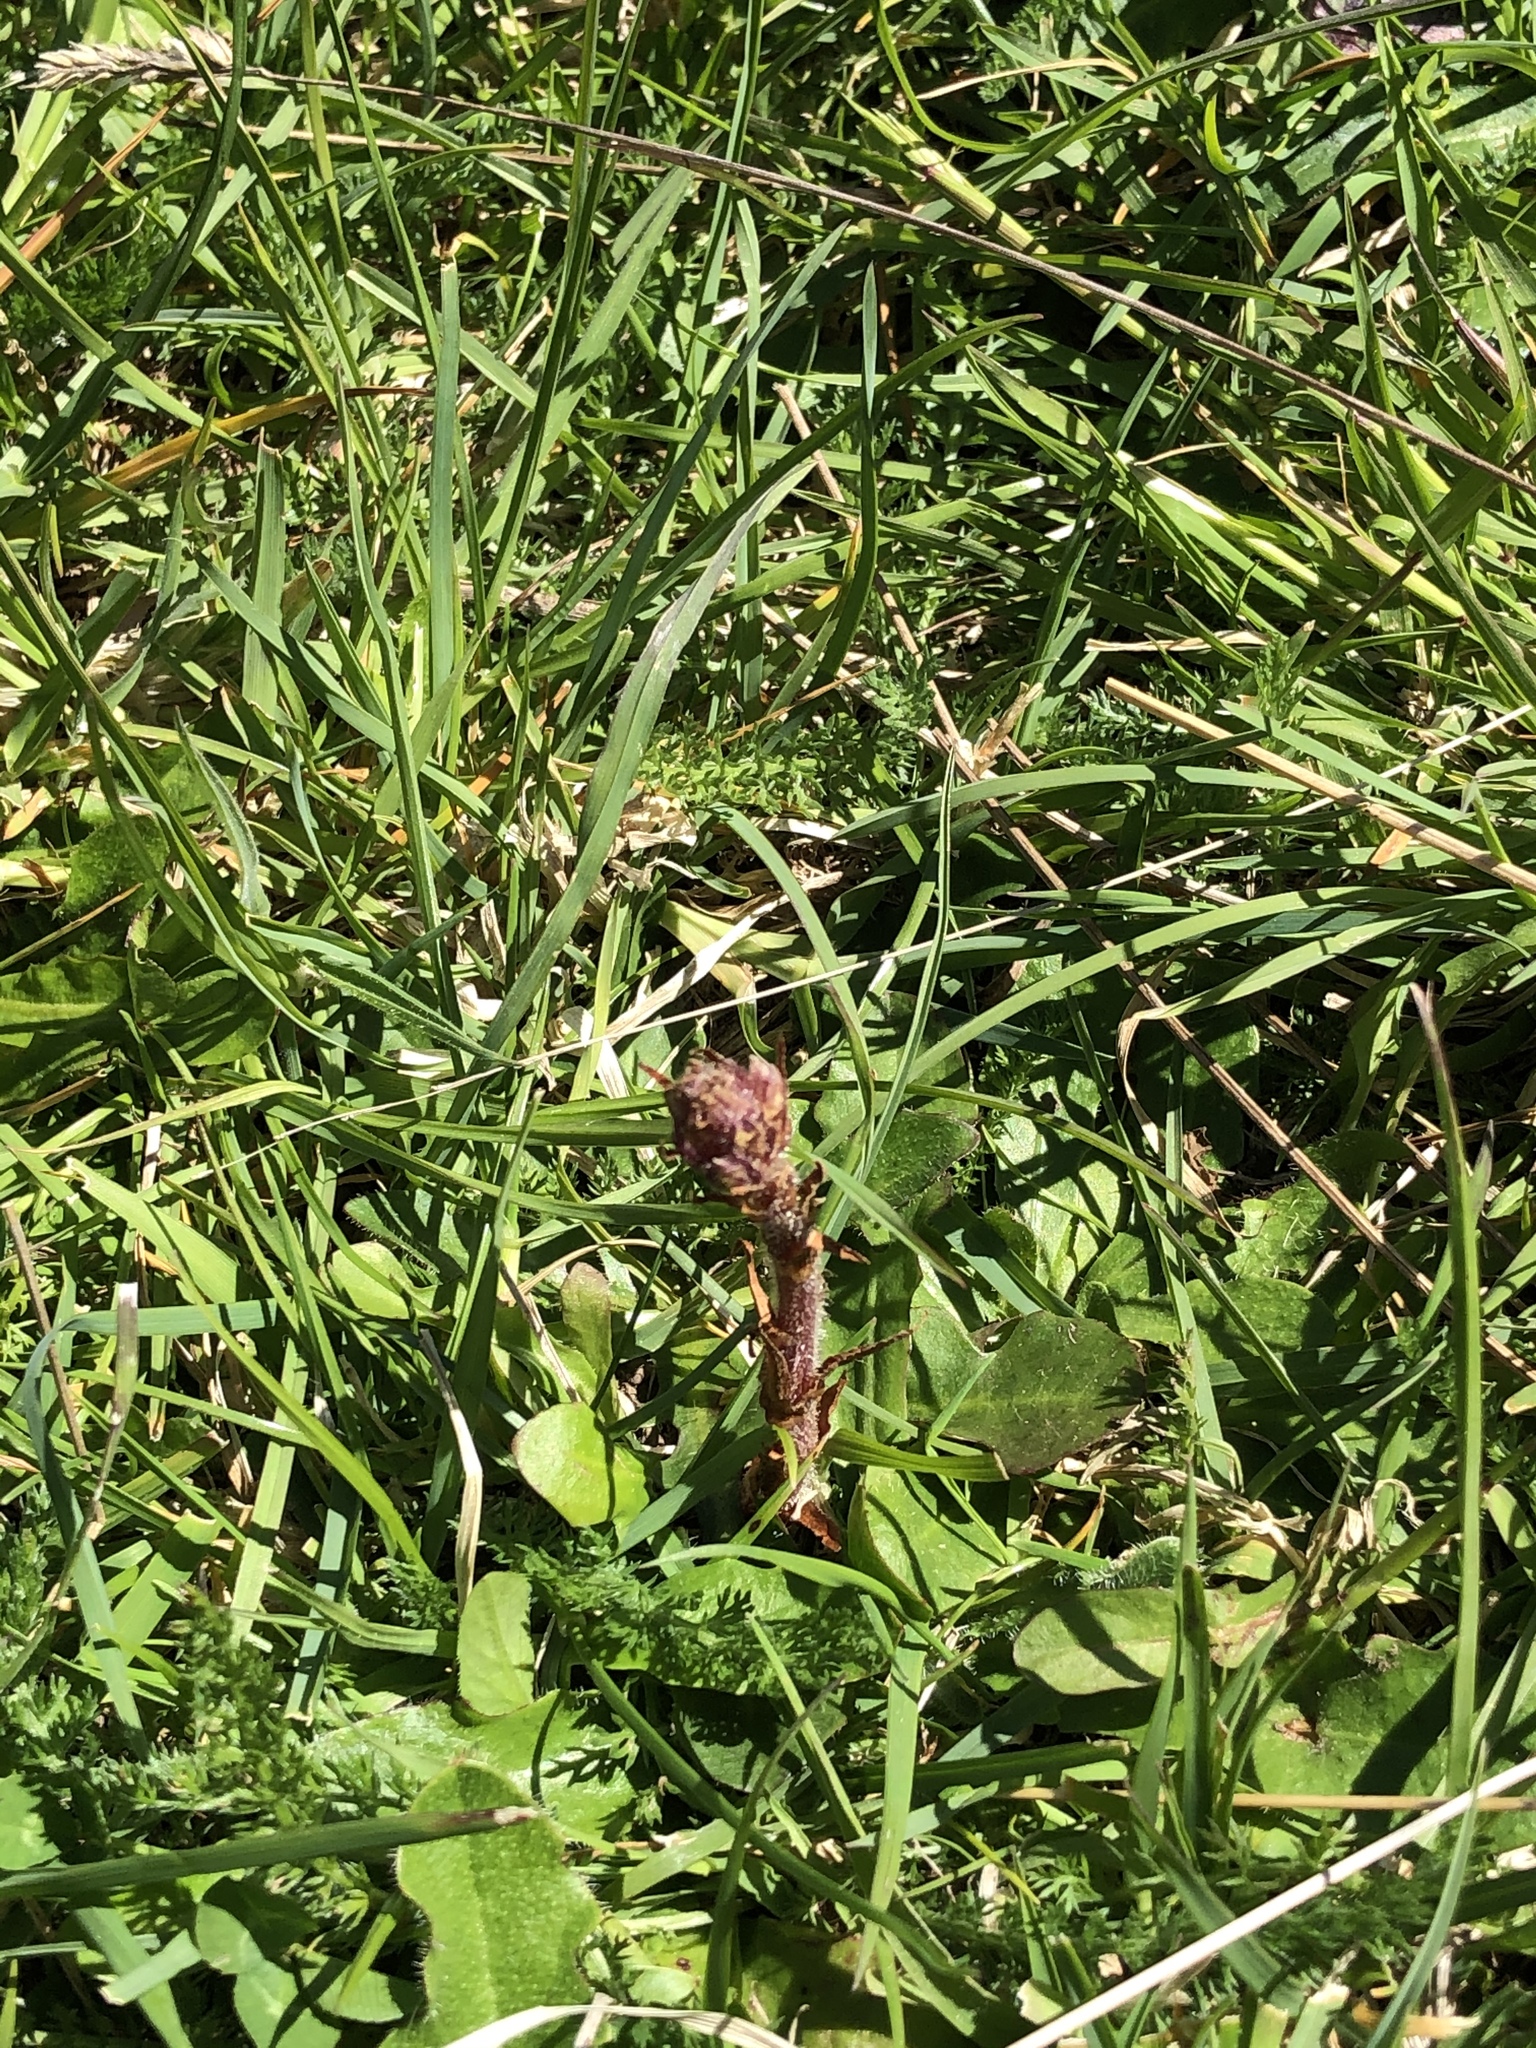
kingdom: Plantae
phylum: Tracheophyta
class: Magnoliopsida
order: Lamiales
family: Orobanchaceae
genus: Orobanche
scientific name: Orobanche minor
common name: Common broomrape
